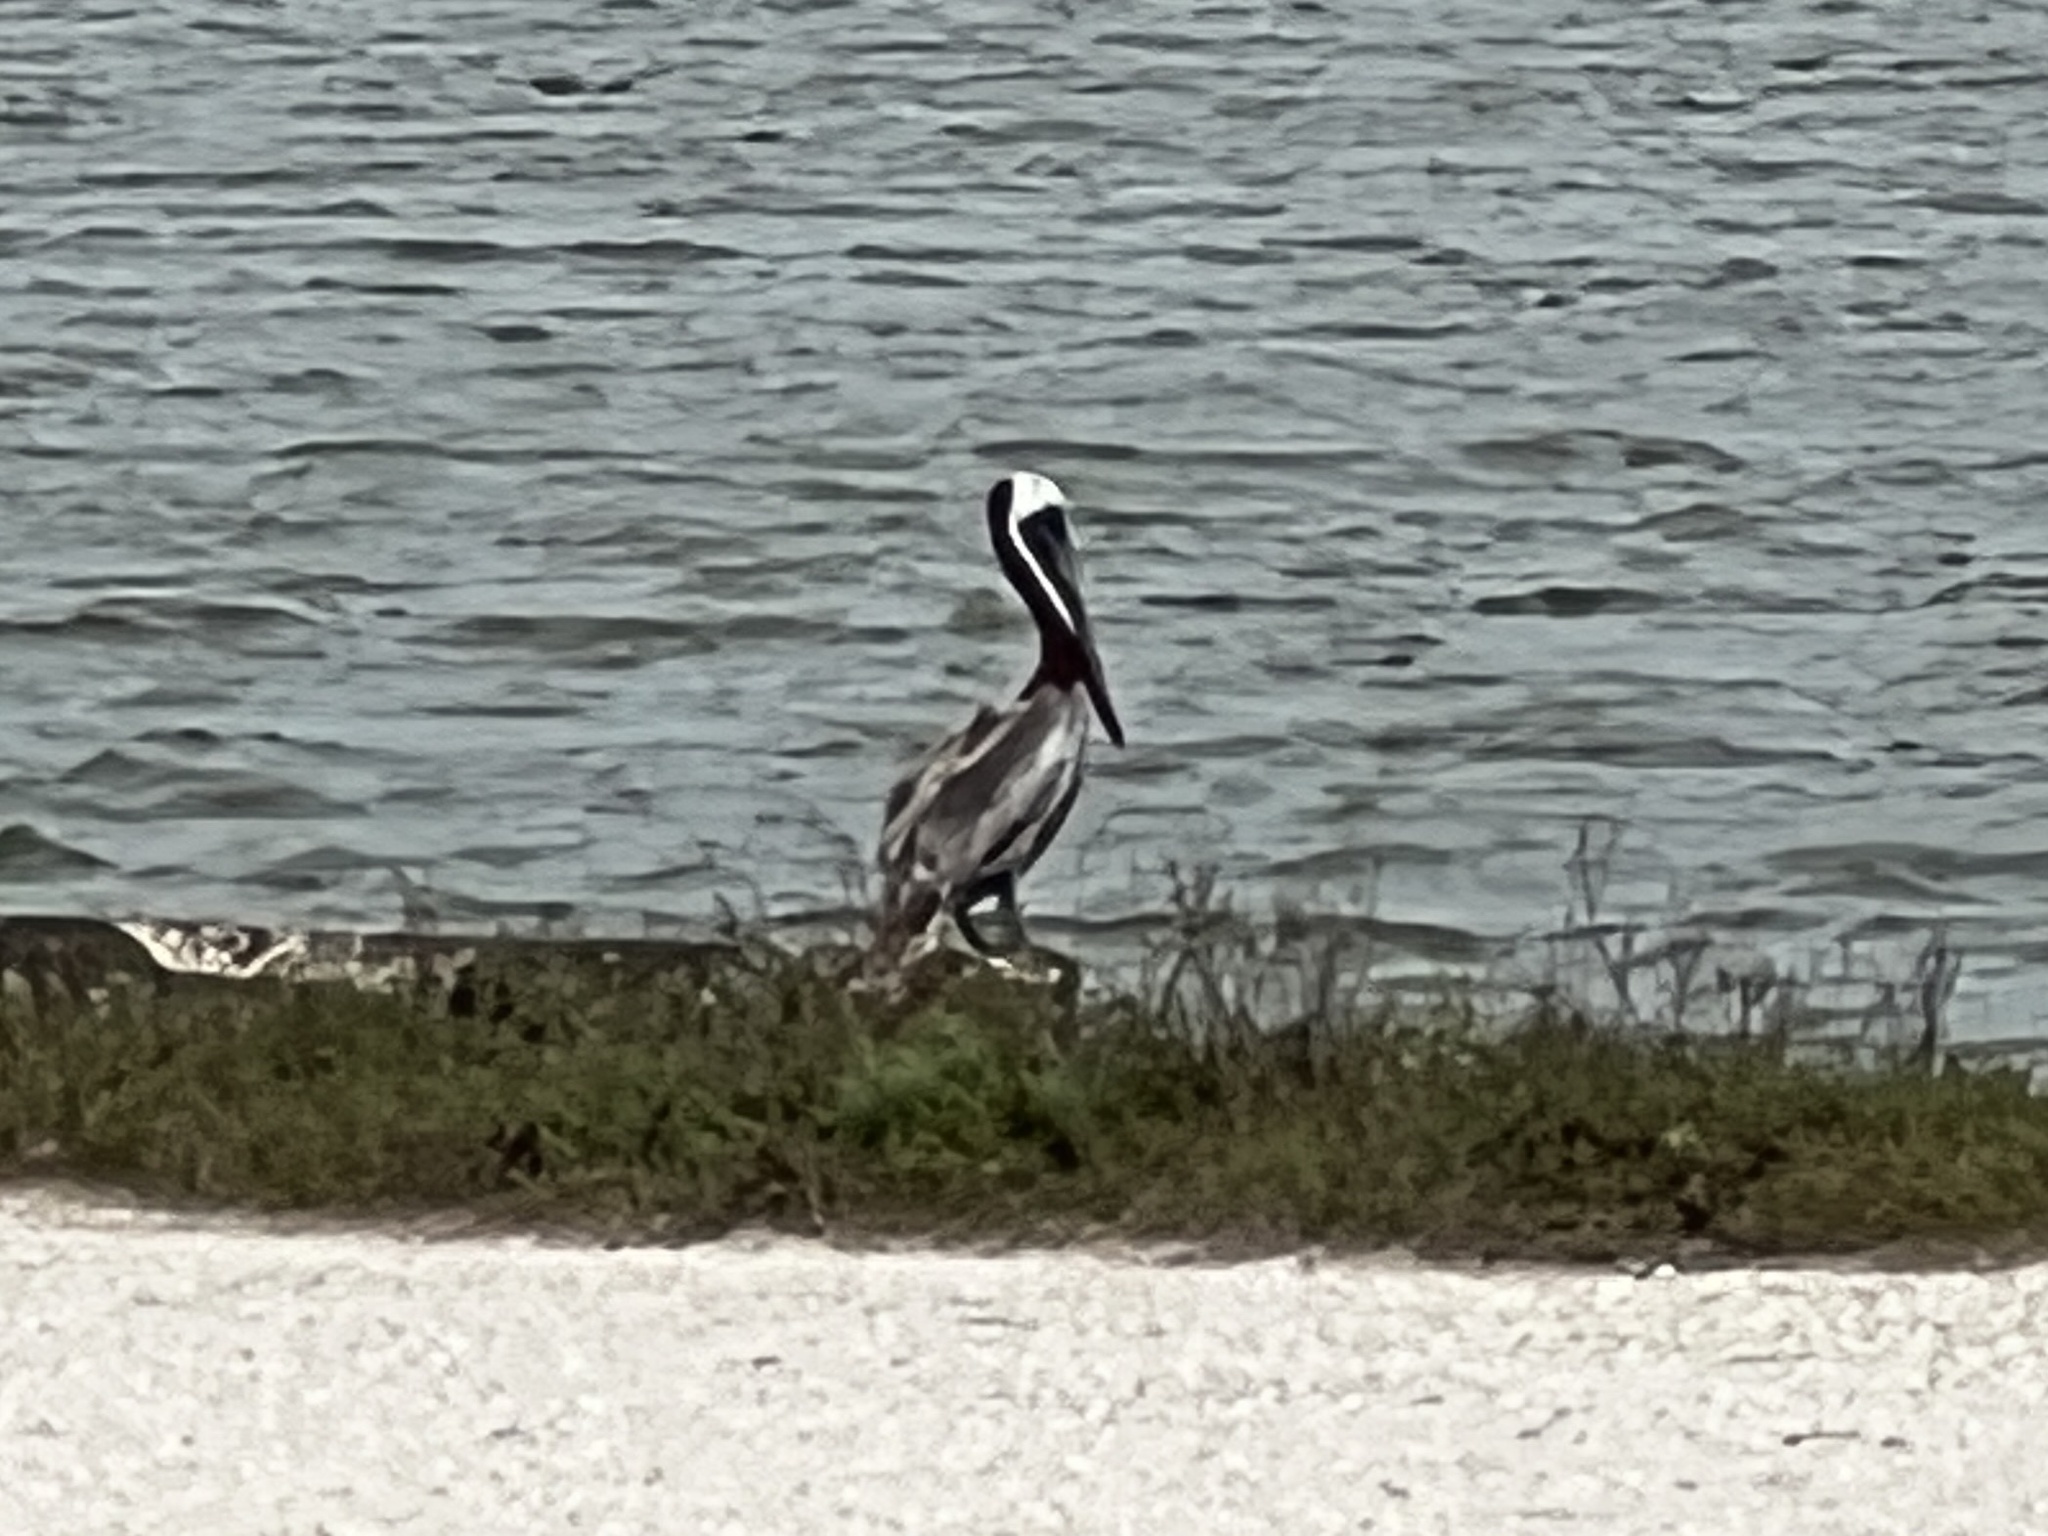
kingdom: Animalia
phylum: Chordata
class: Aves
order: Pelecaniformes
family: Pelecanidae
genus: Pelecanus
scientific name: Pelecanus occidentalis
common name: Brown pelican
